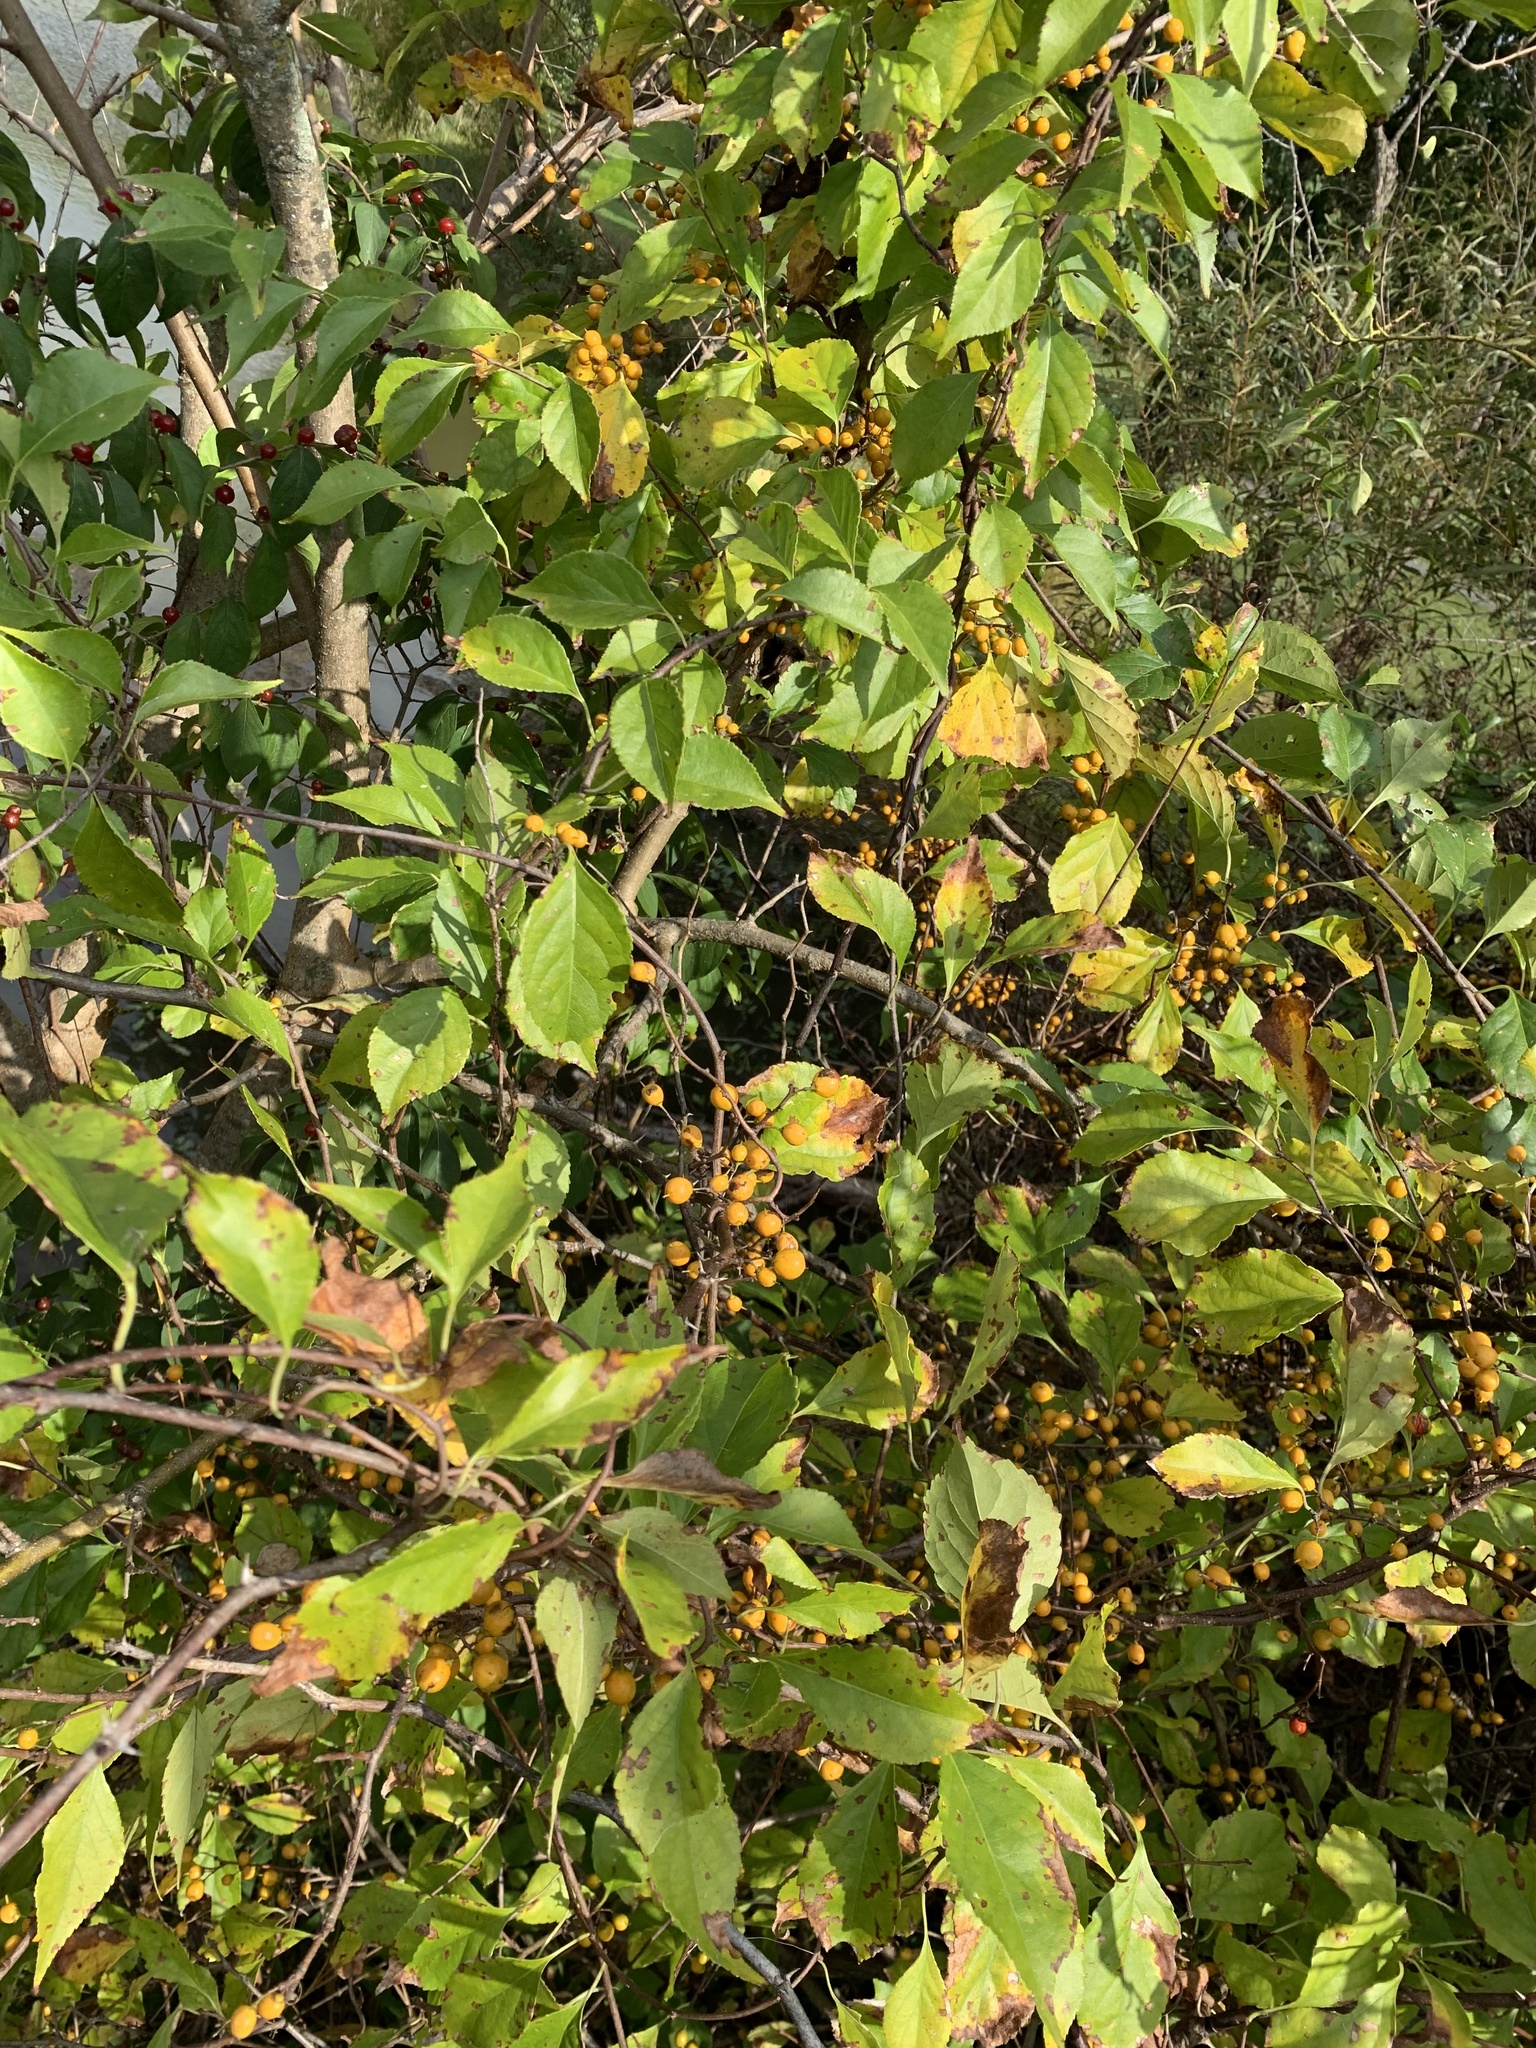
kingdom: Plantae
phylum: Tracheophyta
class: Magnoliopsida
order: Celastrales
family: Celastraceae
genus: Celastrus
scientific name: Celastrus orbiculatus
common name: Oriental bittersweet
